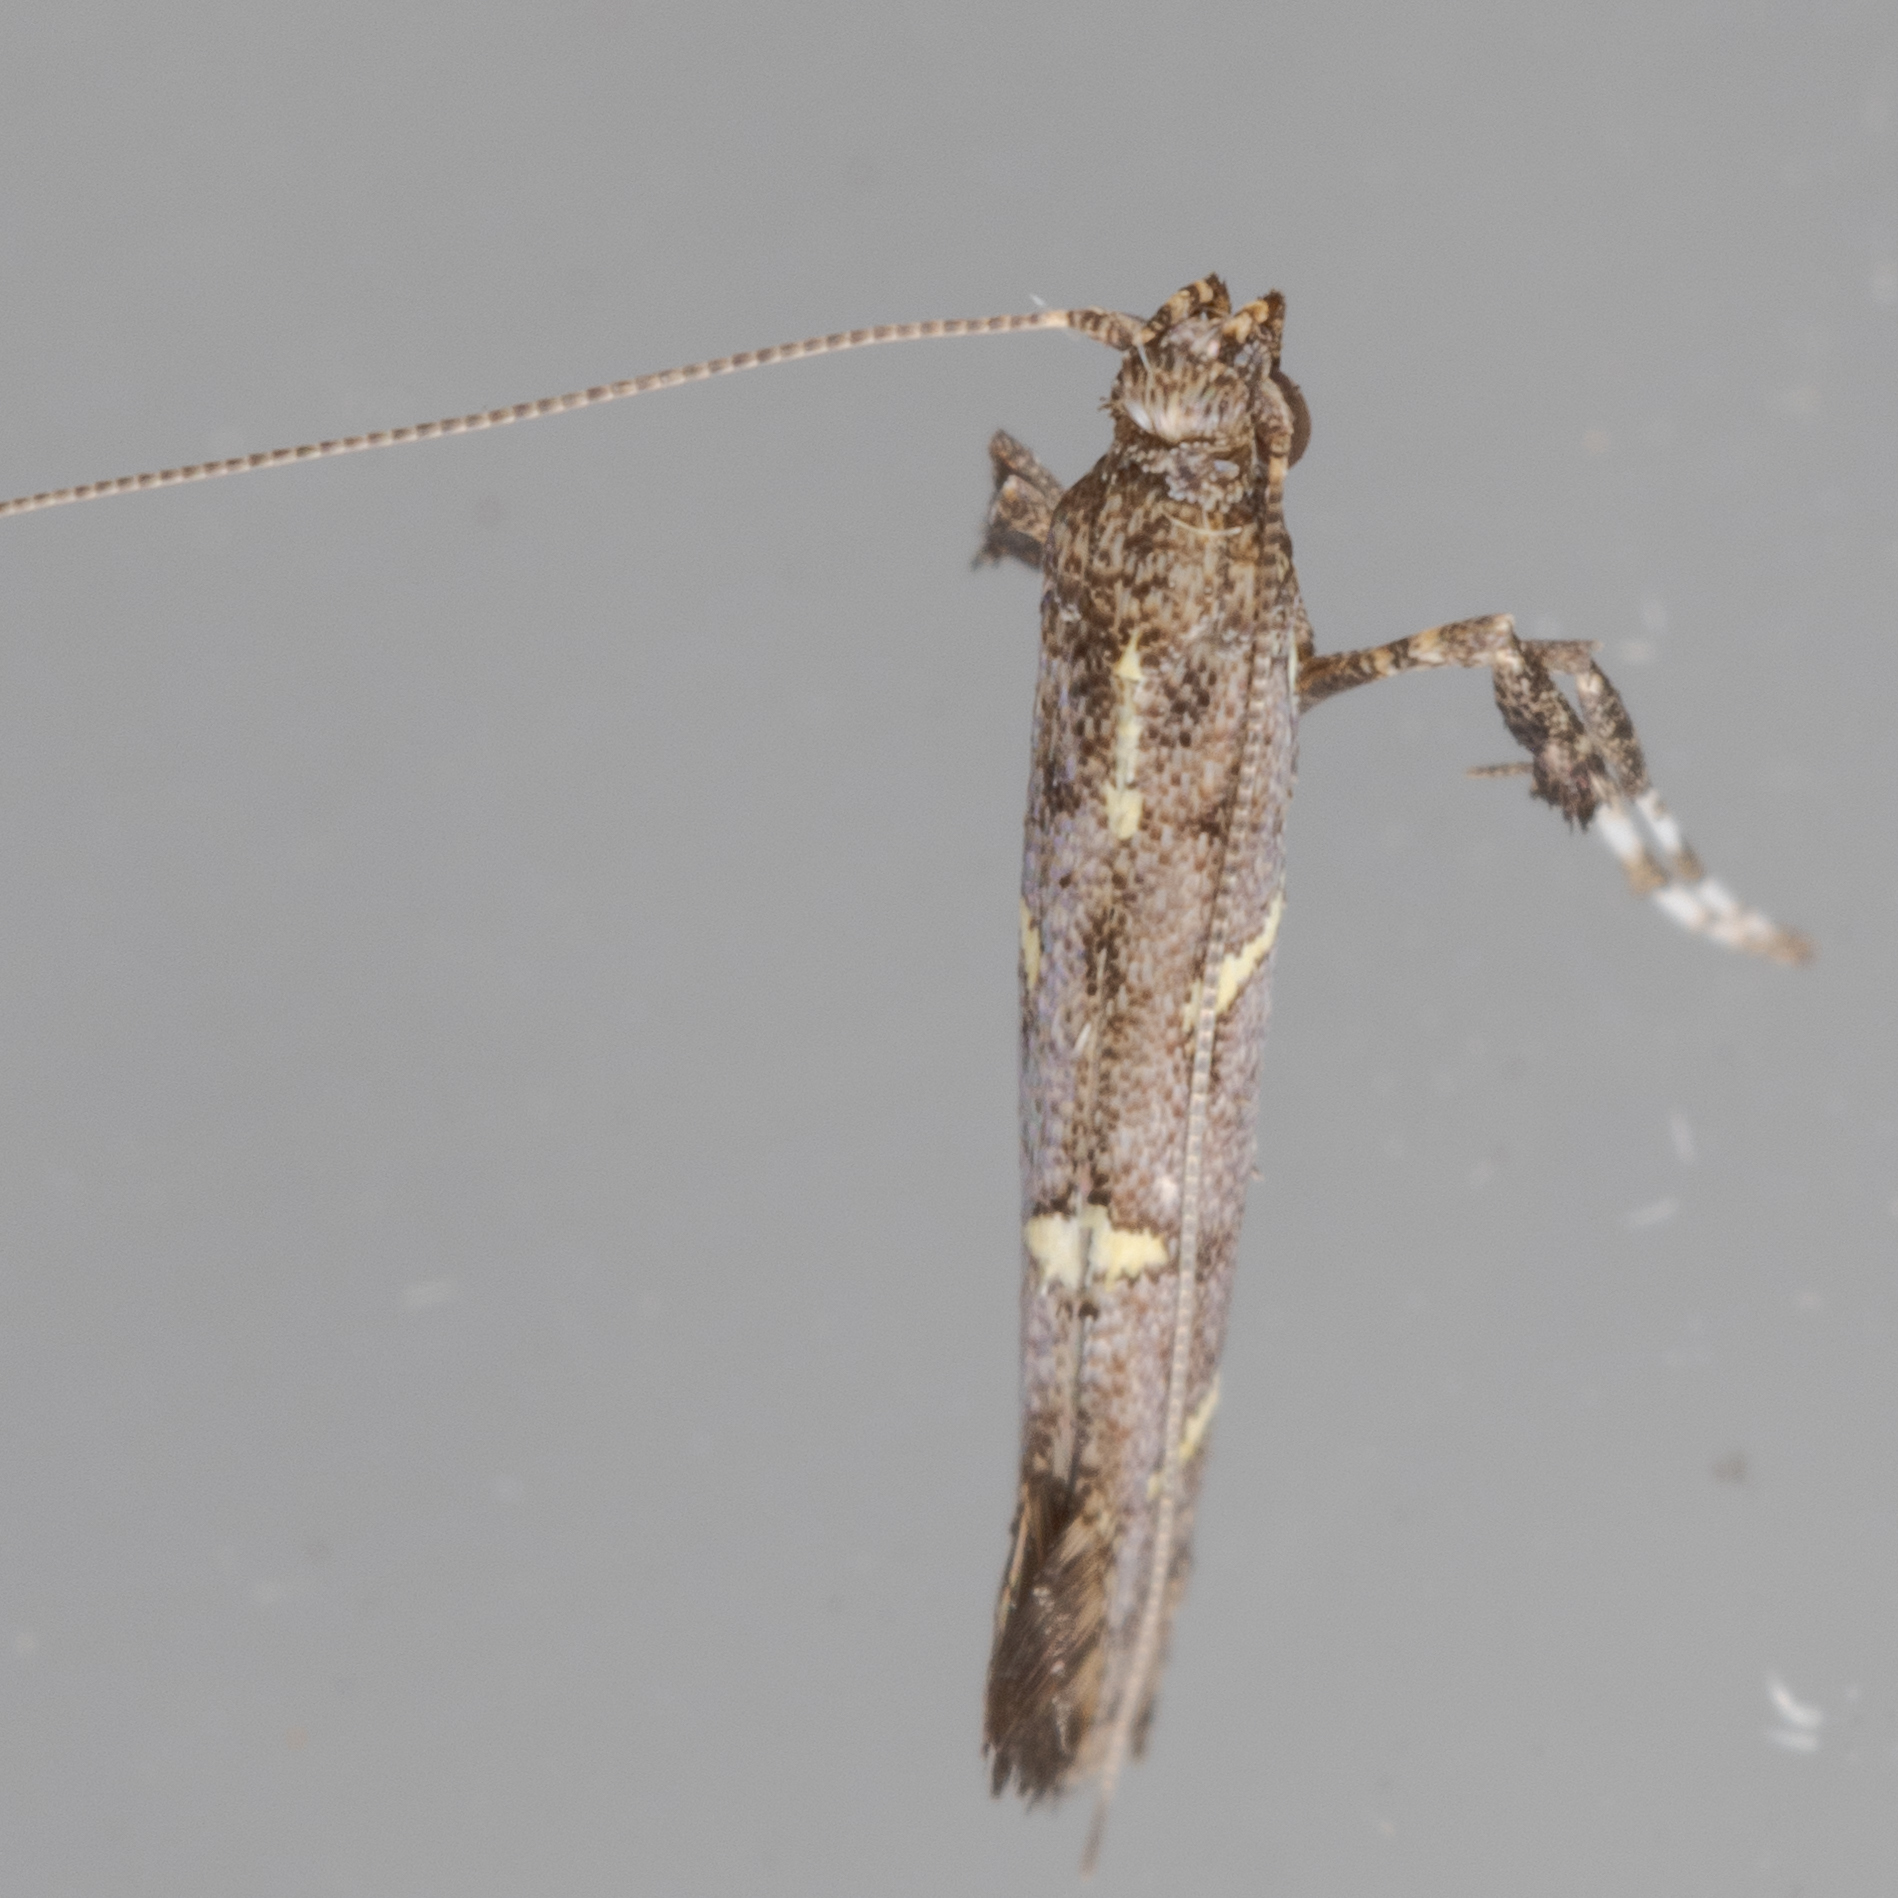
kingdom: Animalia
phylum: Arthropoda
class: Insecta
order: Lepidoptera
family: Gracillariidae
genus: Caloptilia
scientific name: Caloptilia triadicae
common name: Tallow leaf roller
